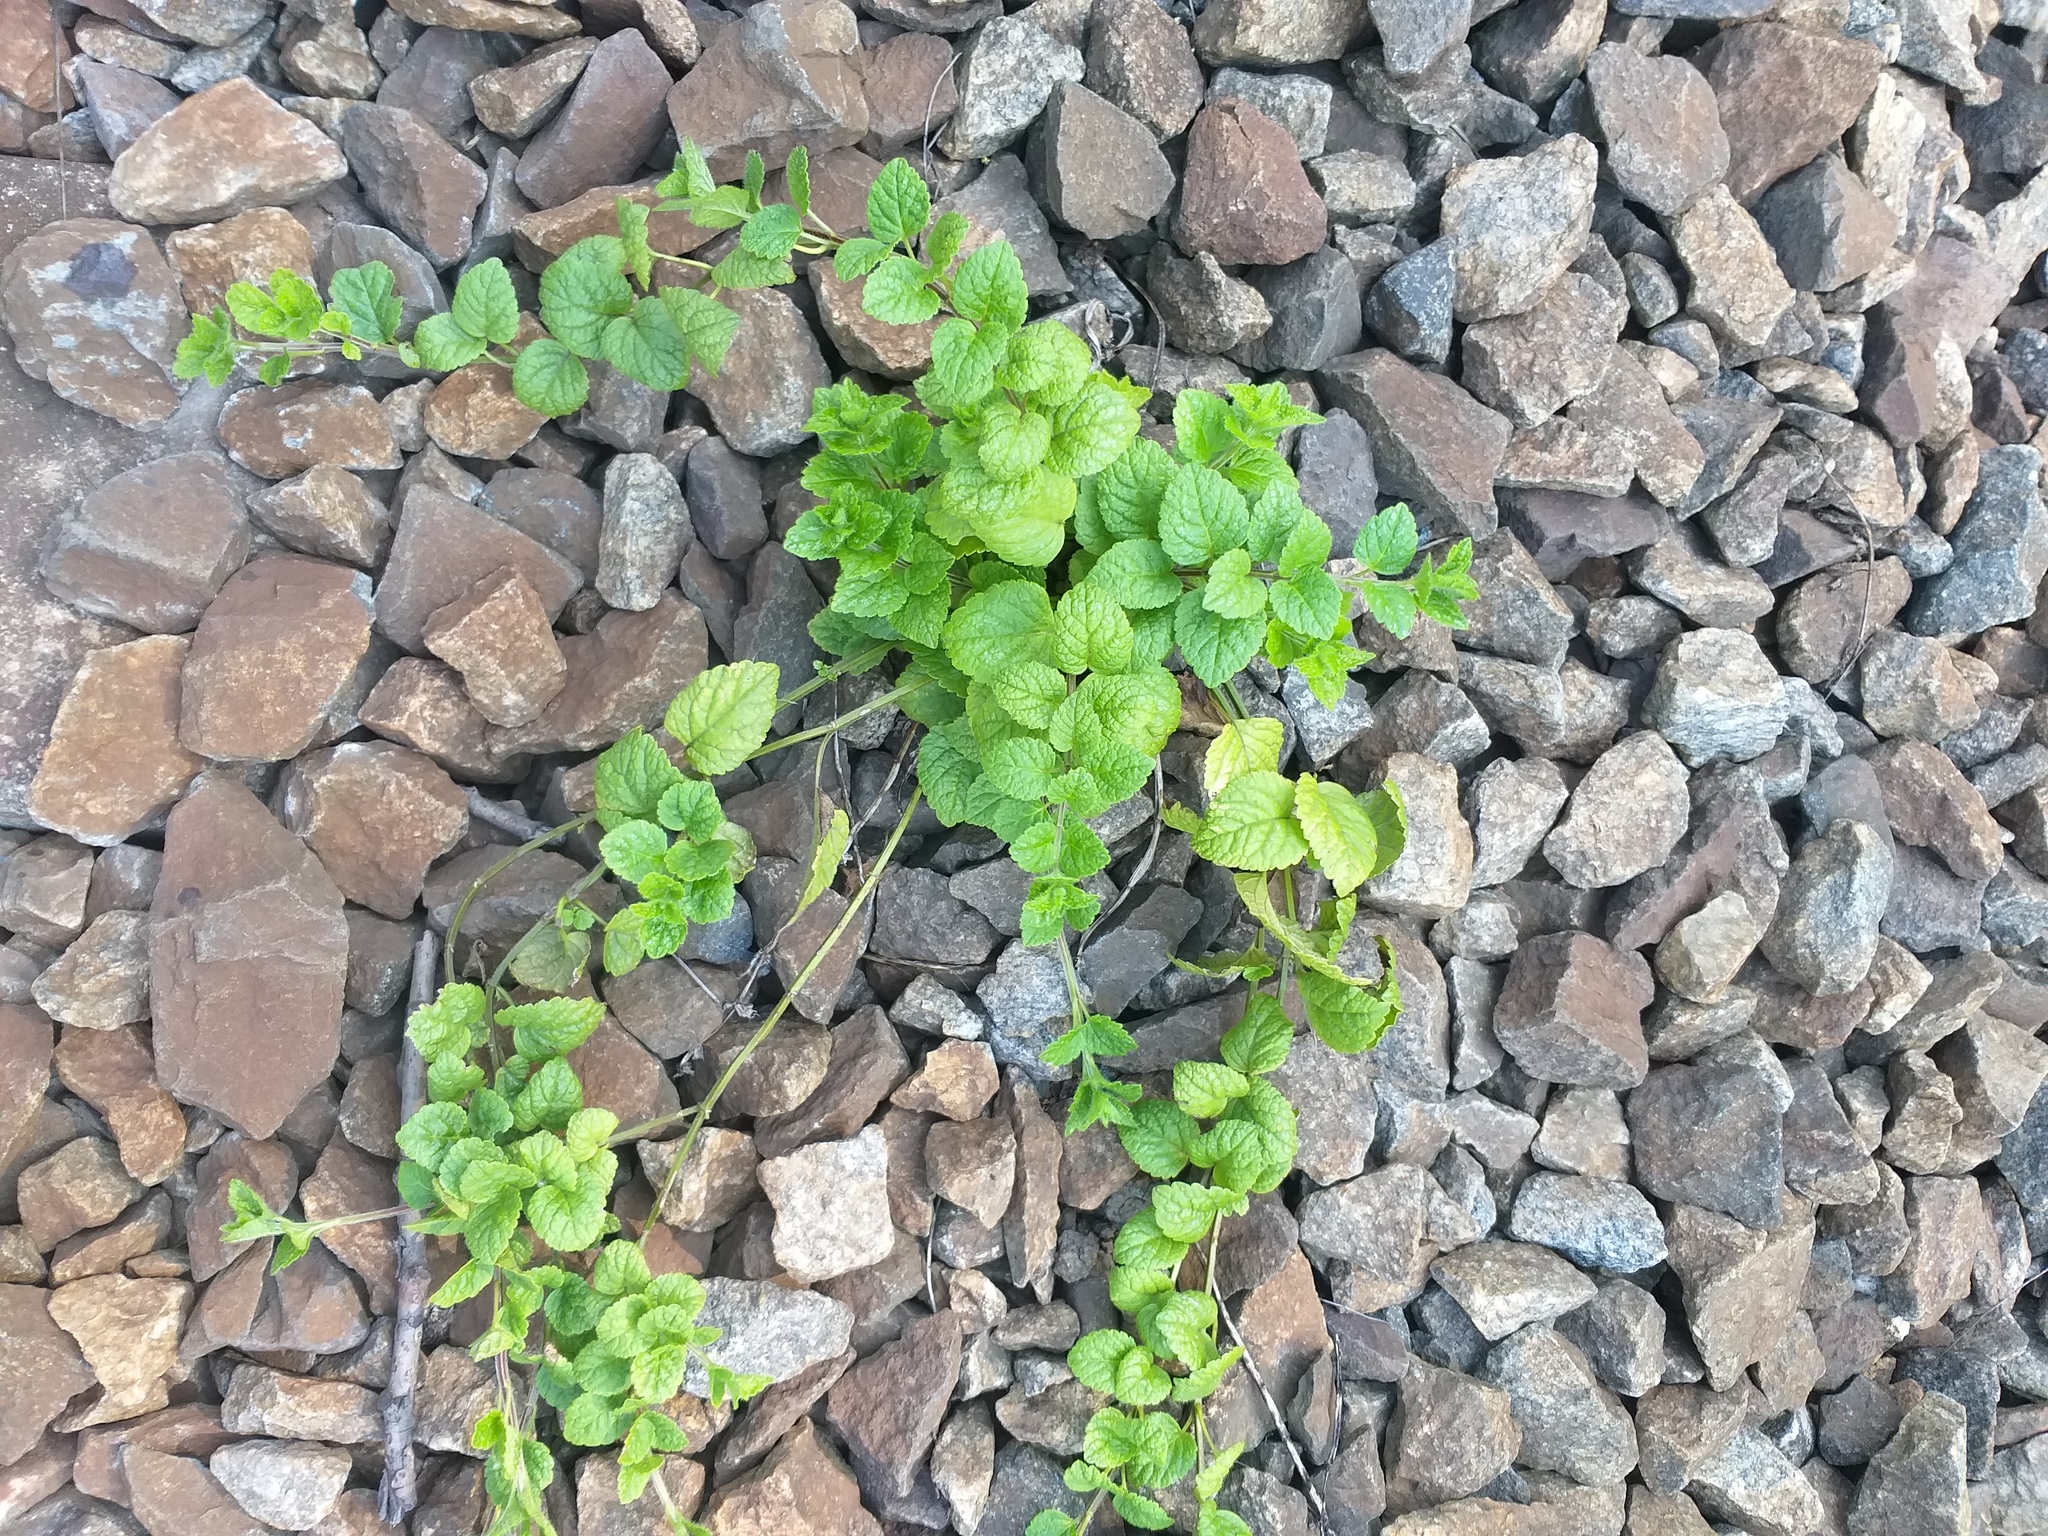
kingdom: Plantae
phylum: Tracheophyta
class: Magnoliopsida
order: Lamiales
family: Lamiaceae
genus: Lamium
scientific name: Lamium galeobdolon
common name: Yellow archangel
